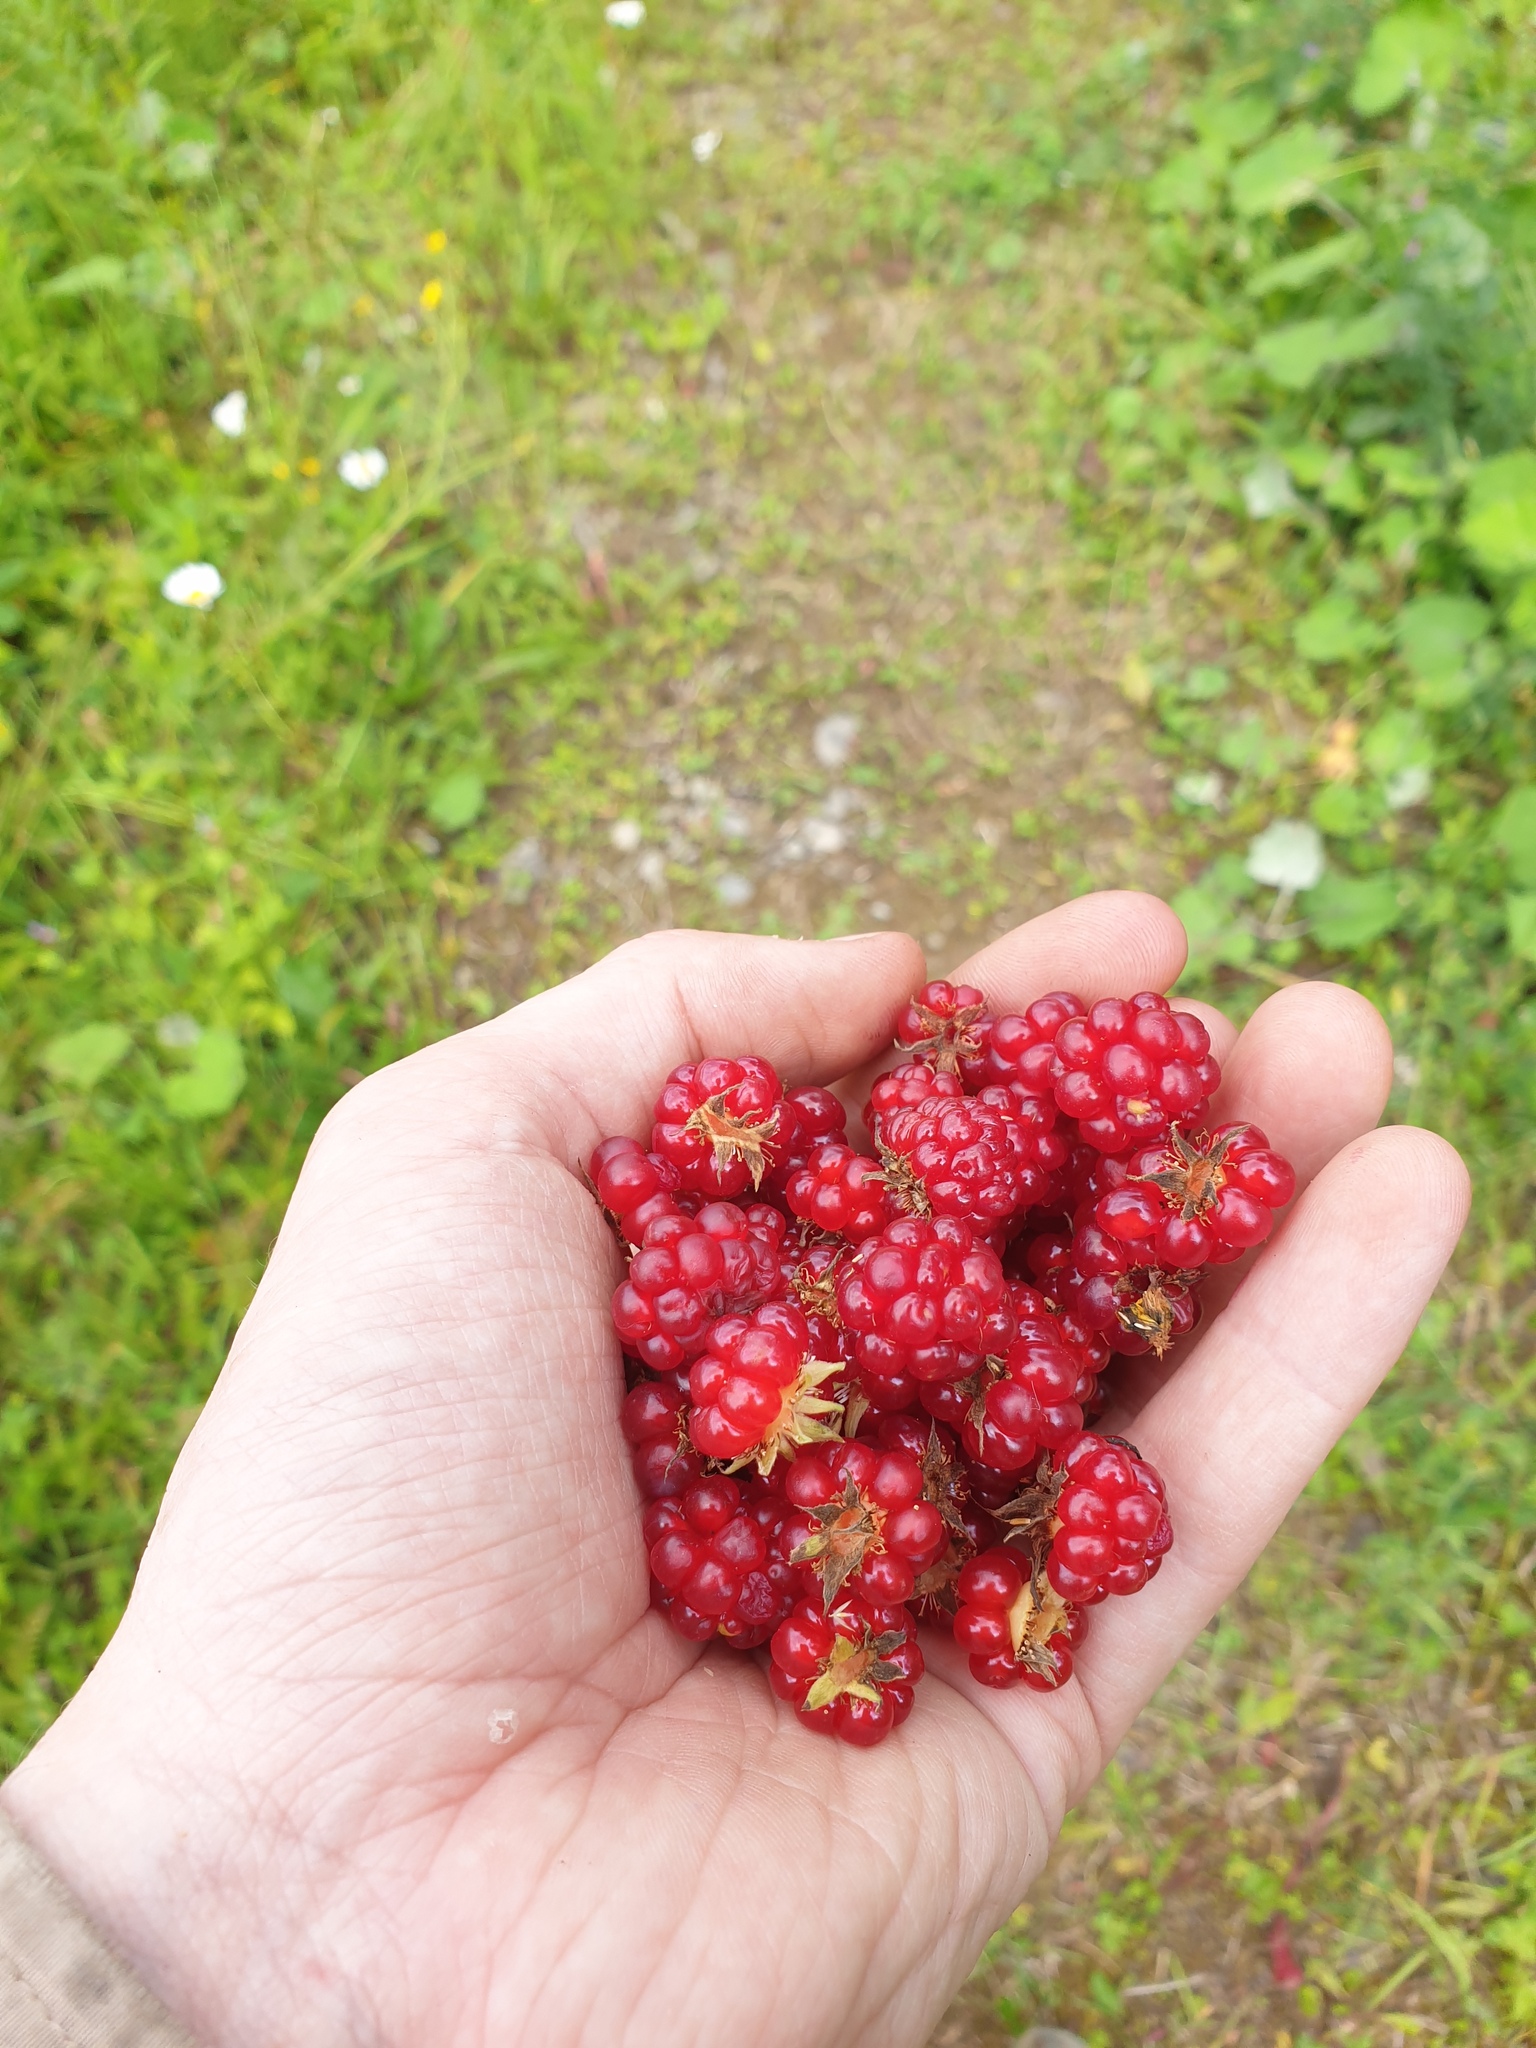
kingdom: Plantae
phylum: Tracheophyta
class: Magnoliopsida
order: Rosales
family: Rosaceae
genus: Rubus
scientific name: Rubus pubescens
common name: Dwarf raspberry
